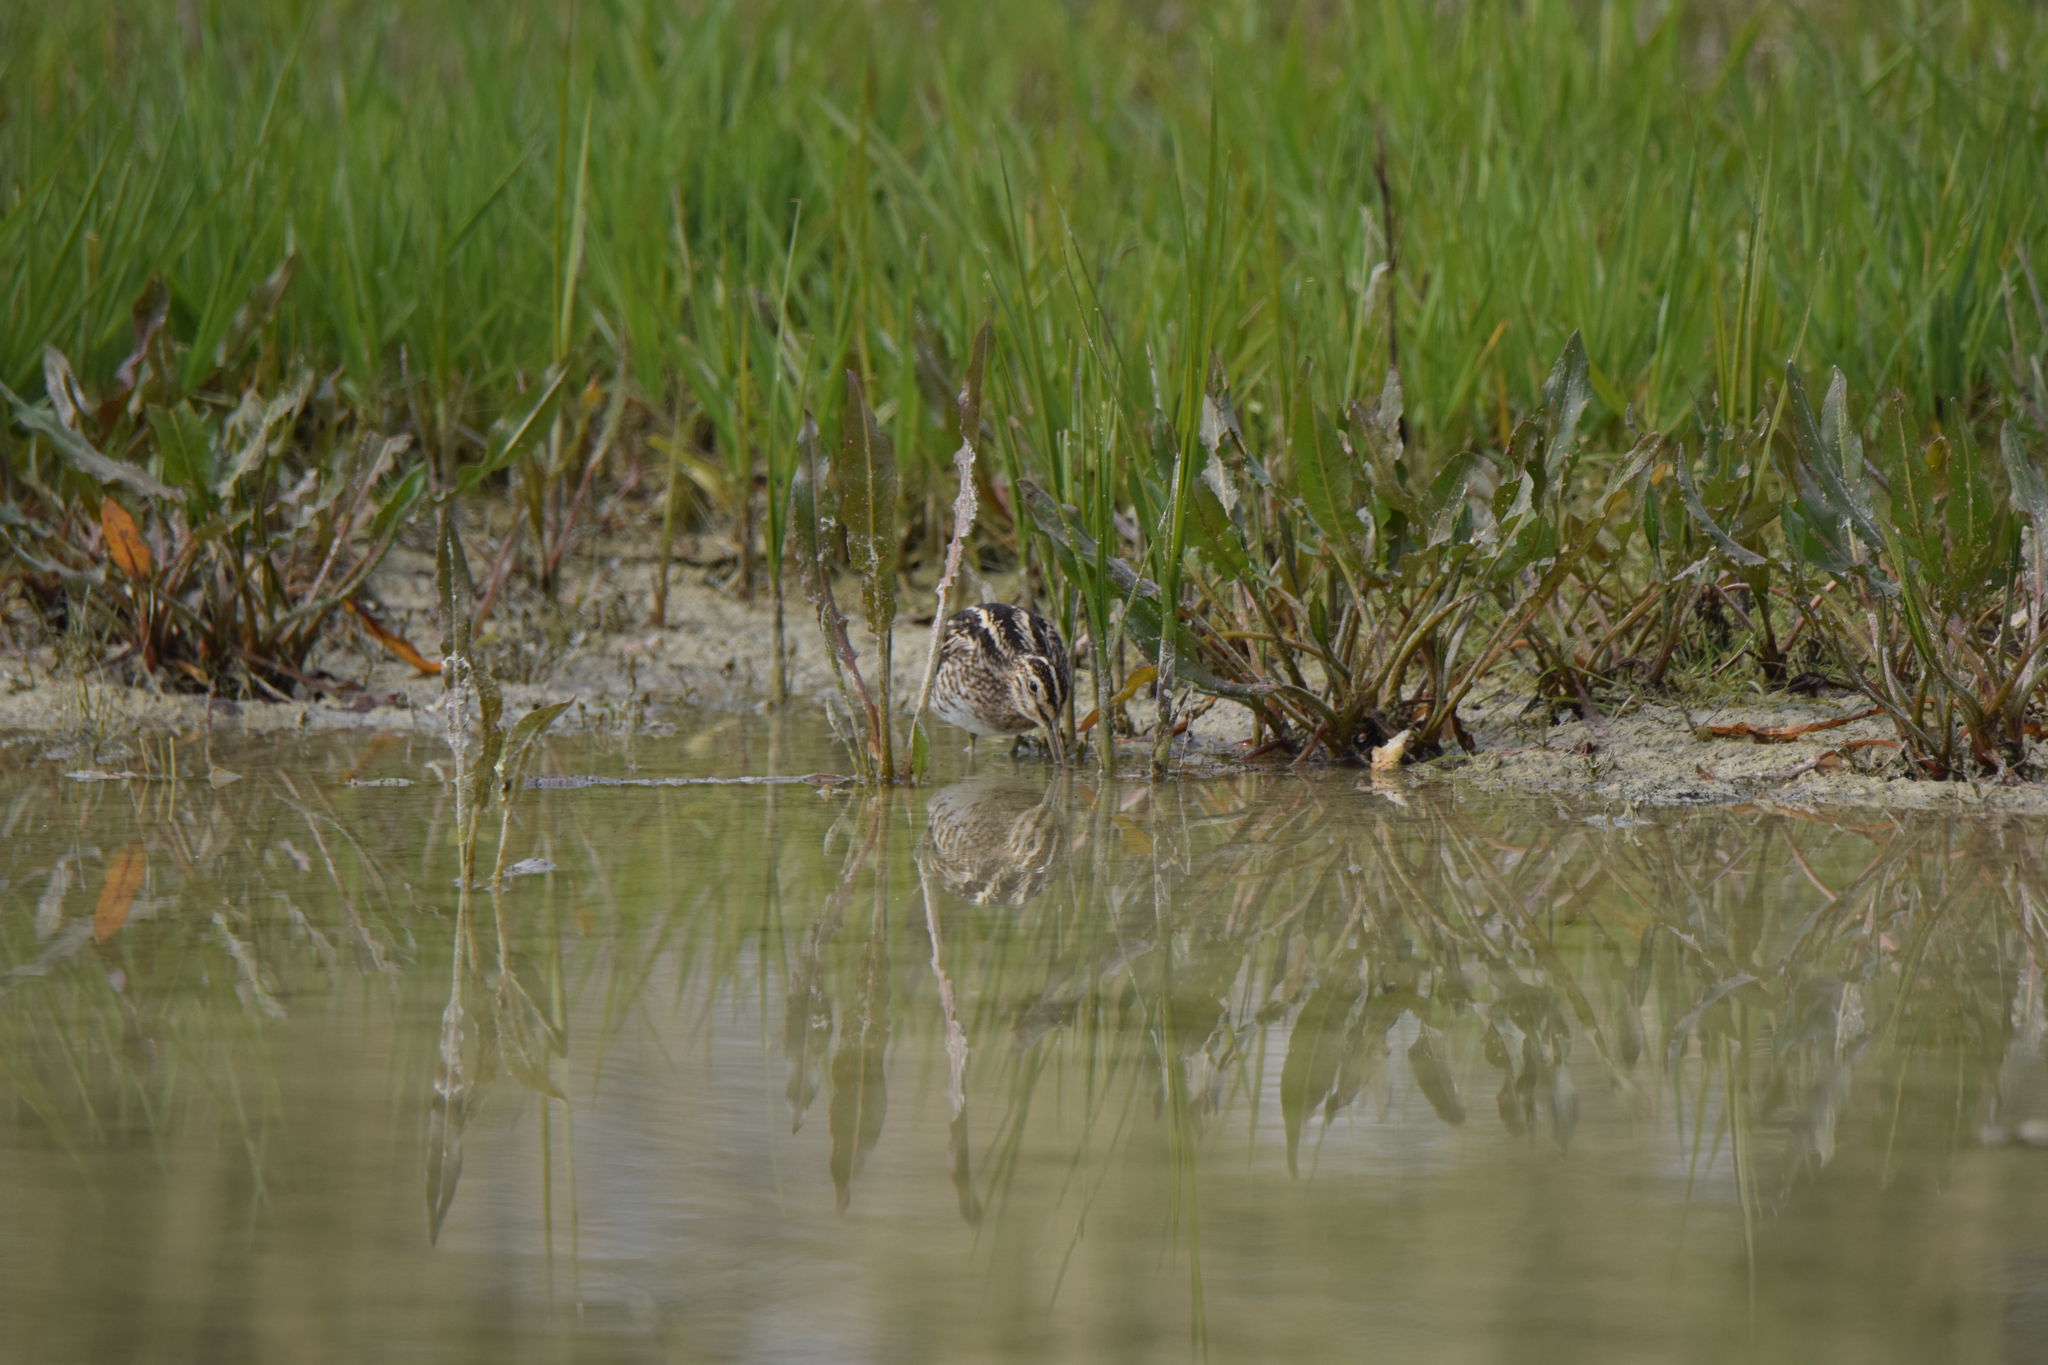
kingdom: Animalia
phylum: Chordata
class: Aves
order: Charadriiformes
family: Scolopacidae
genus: Gallinago
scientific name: Gallinago gallinago
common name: Common snipe
